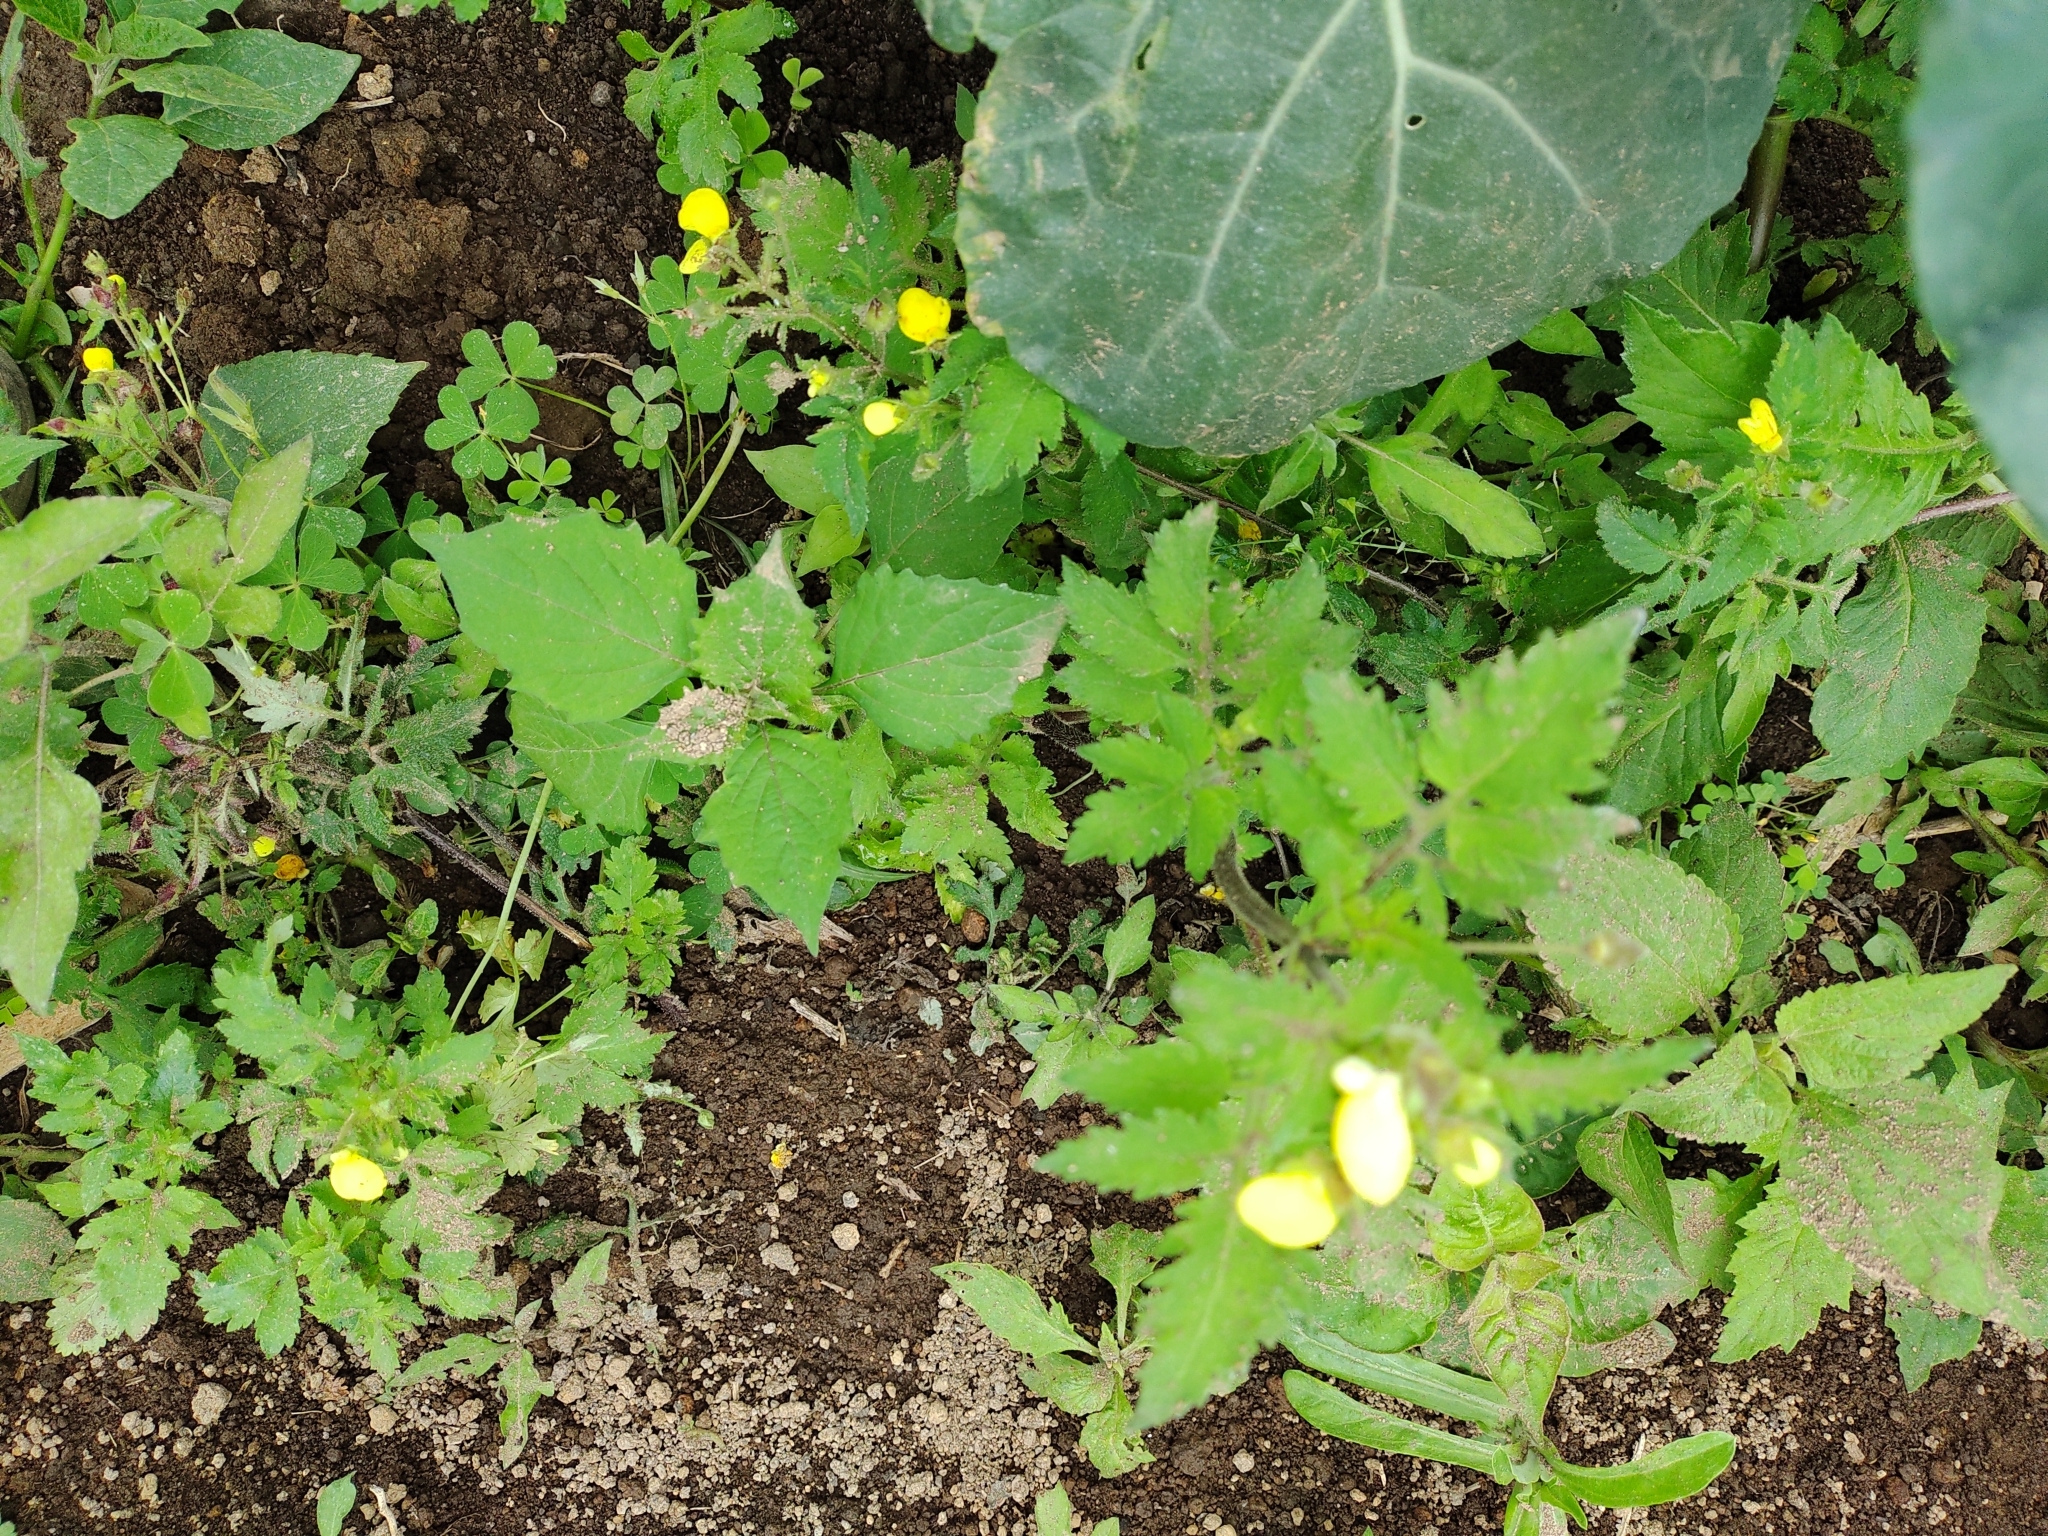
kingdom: Plantae
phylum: Tracheophyta
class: Magnoliopsida
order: Lamiales
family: Calceolariaceae
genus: Calceolaria
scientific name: Calceolaria tripartita
